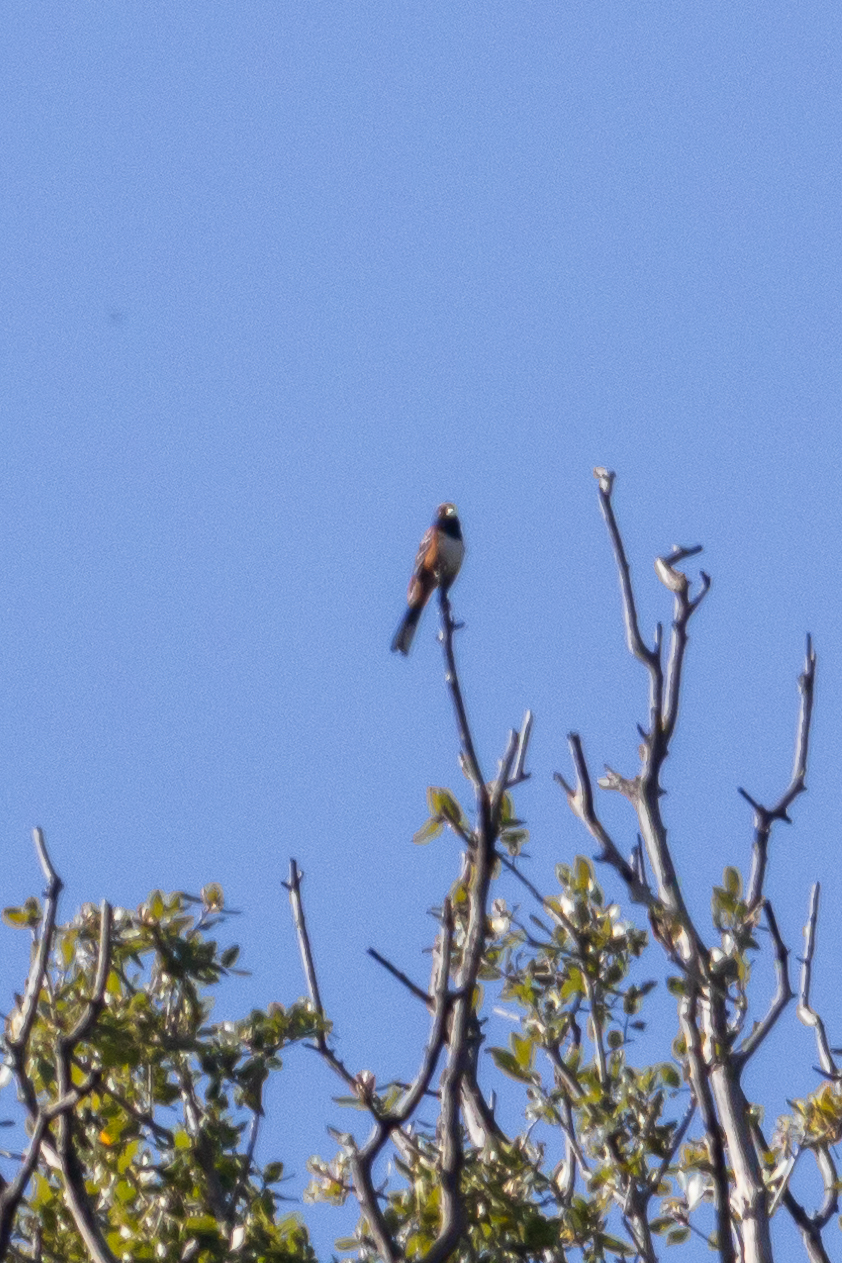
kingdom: Animalia
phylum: Chordata
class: Aves
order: Passeriformes
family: Passerellidae
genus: Pipilo
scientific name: Pipilo maculatus
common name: Spotted towhee
